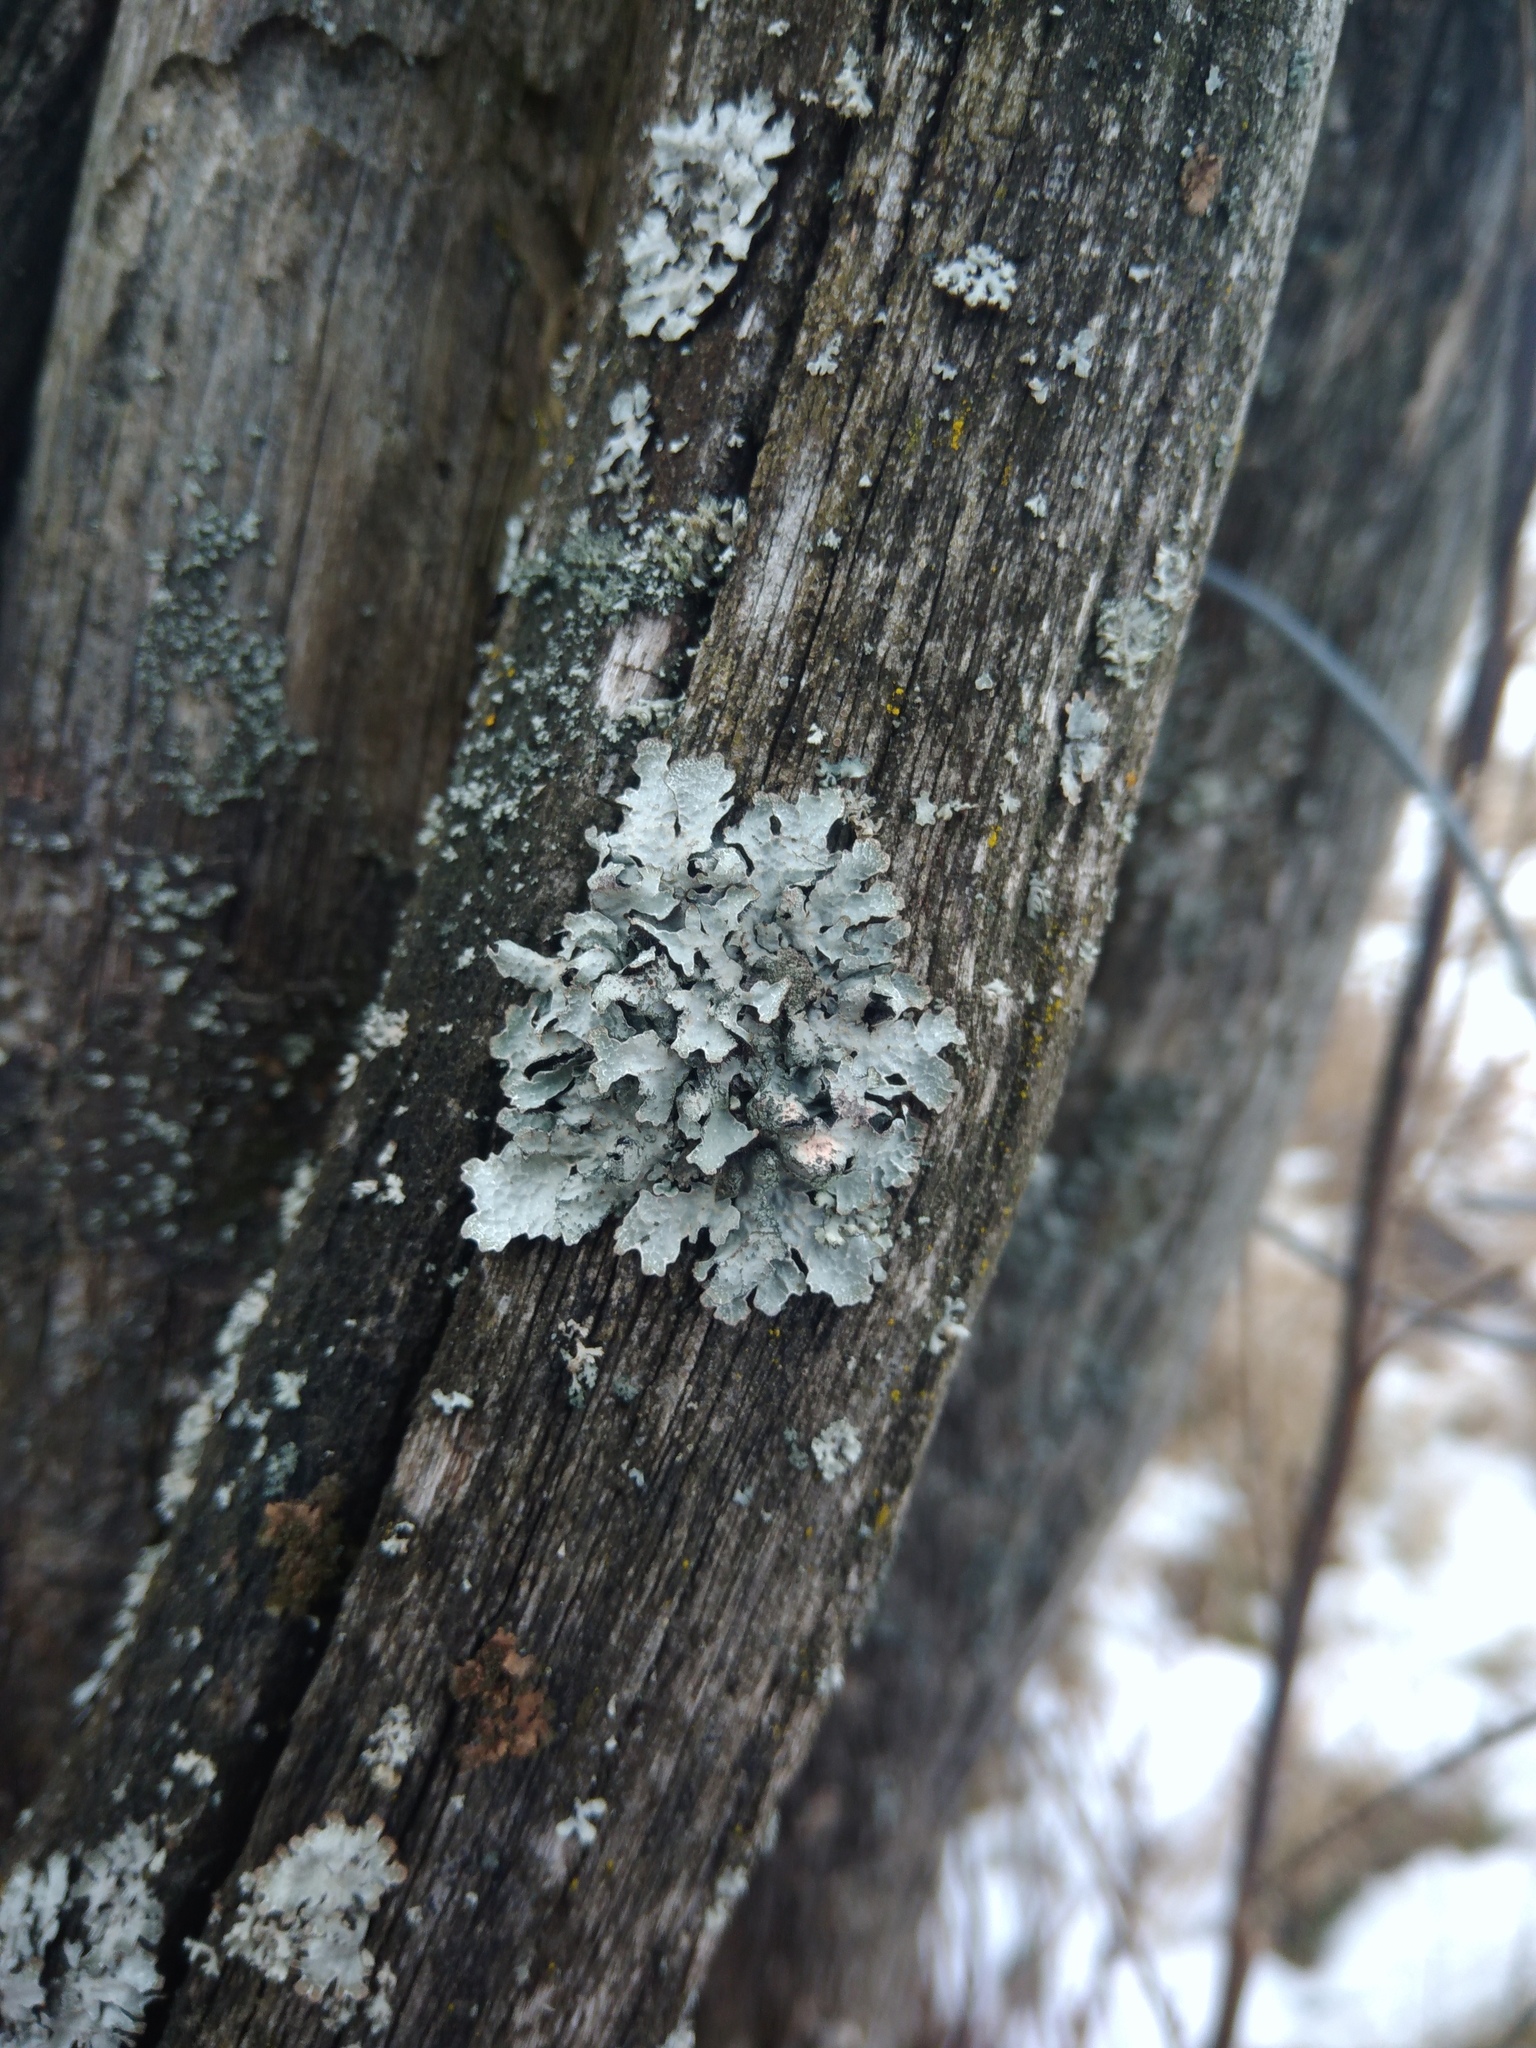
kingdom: Fungi
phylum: Ascomycota
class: Lecanoromycetes
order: Lecanorales
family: Parmeliaceae
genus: Parmelia
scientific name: Parmelia sulcata
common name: Netted shield lichen
